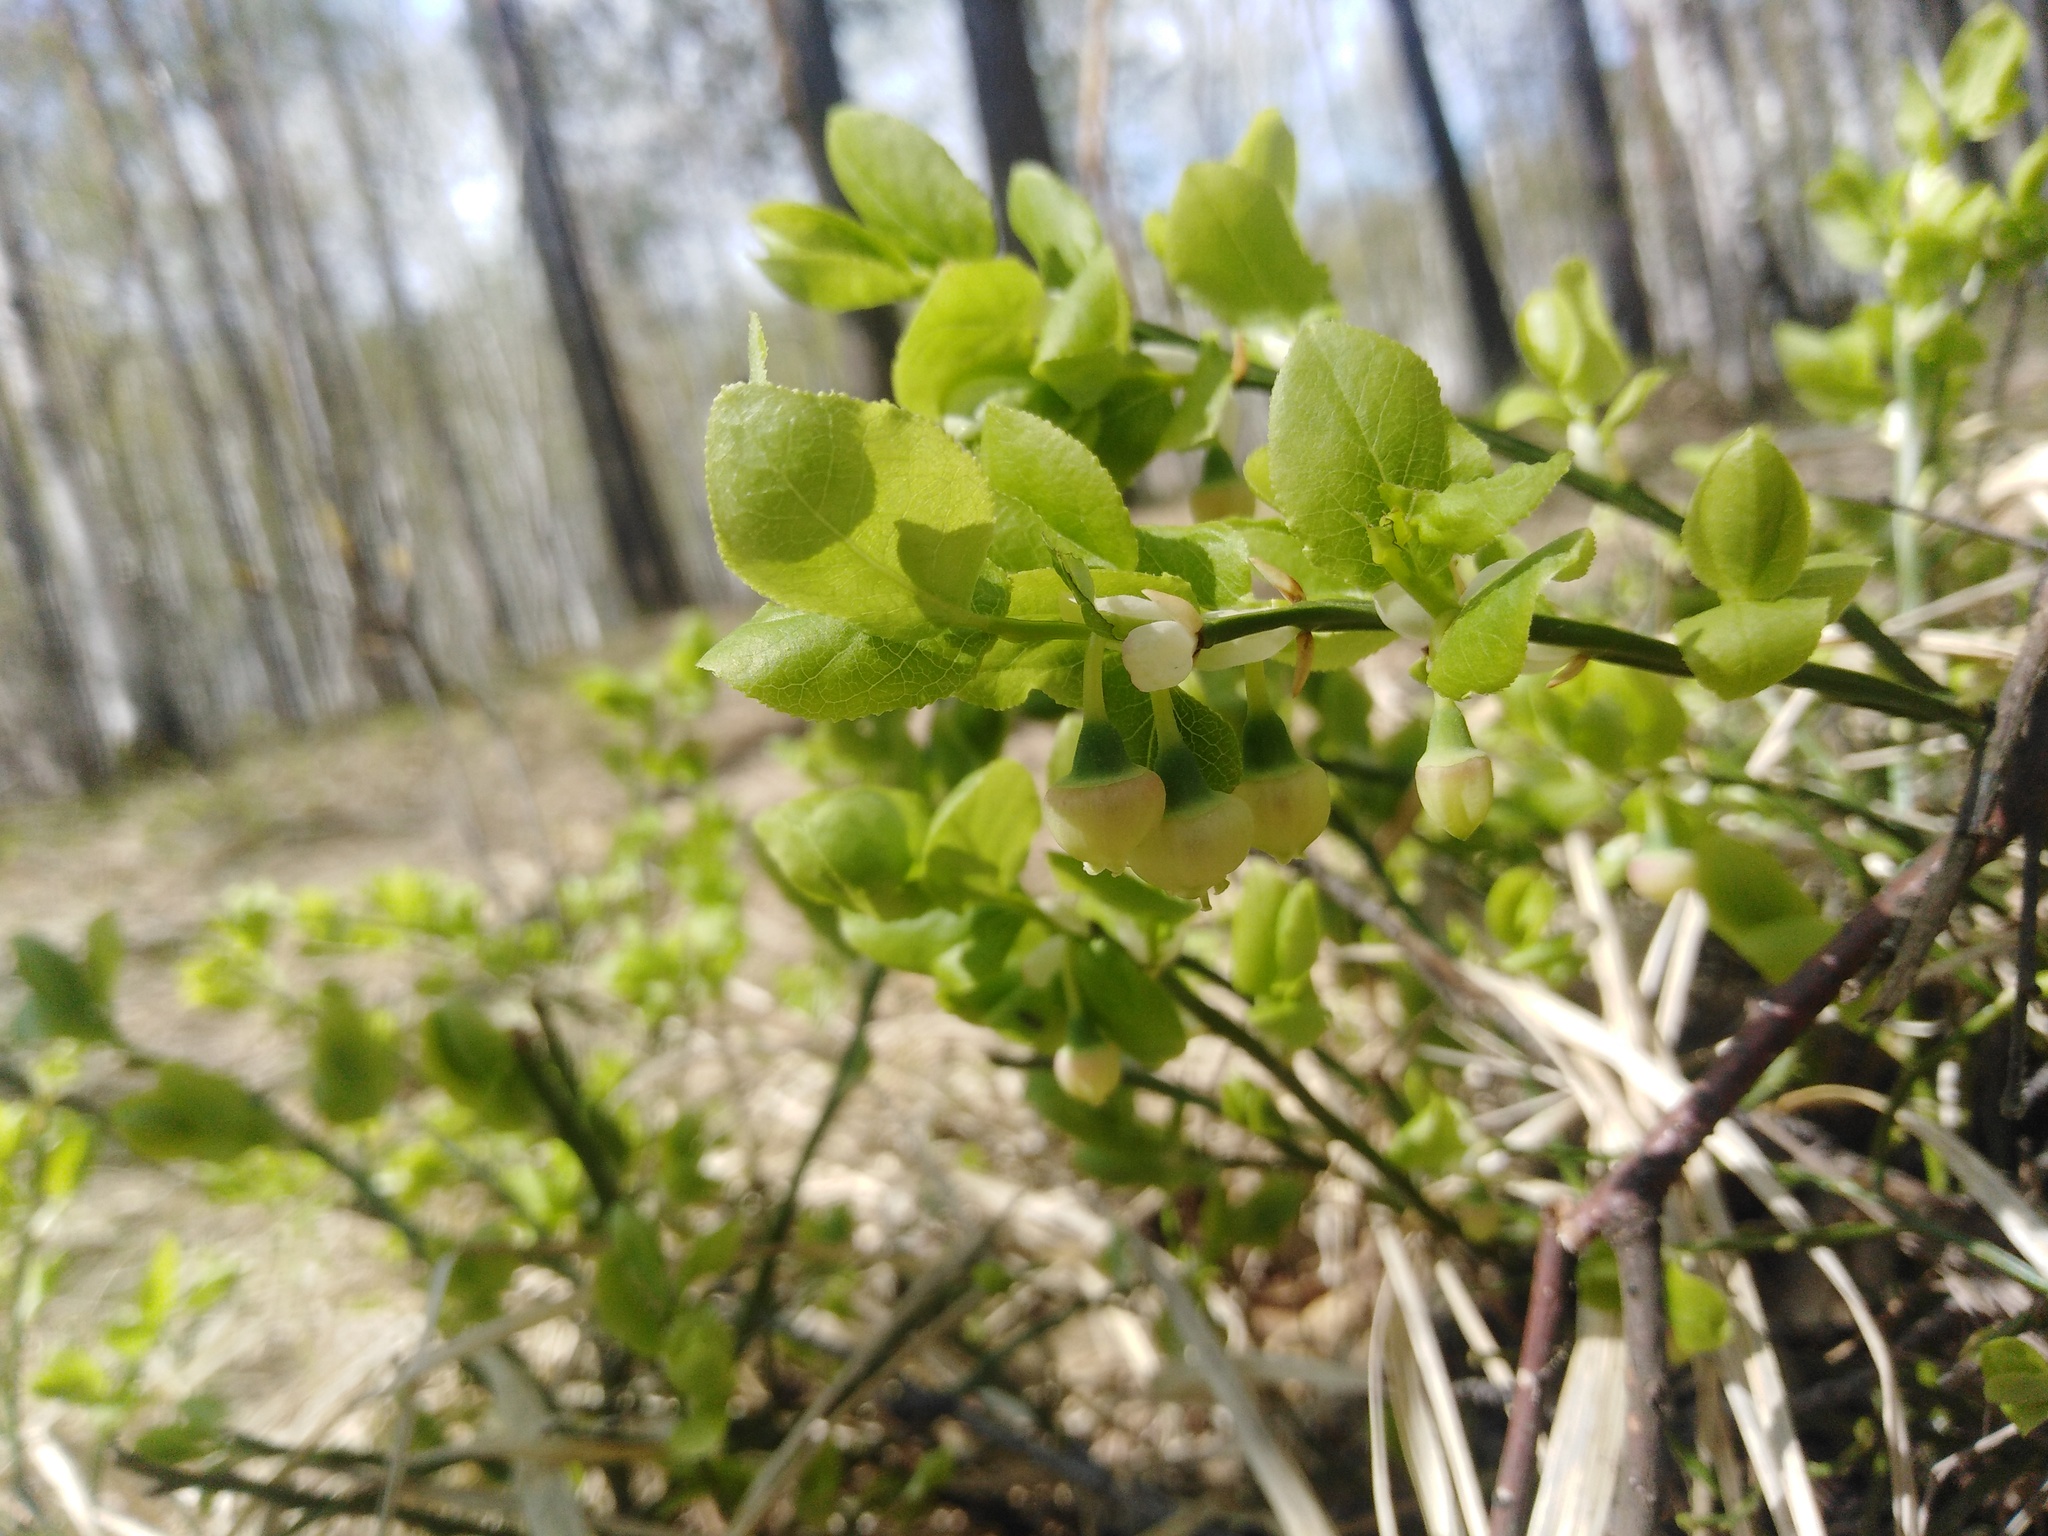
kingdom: Plantae
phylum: Tracheophyta
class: Magnoliopsida
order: Ericales
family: Ericaceae
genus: Vaccinium
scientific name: Vaccinium myrtillus
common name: Bilberry
